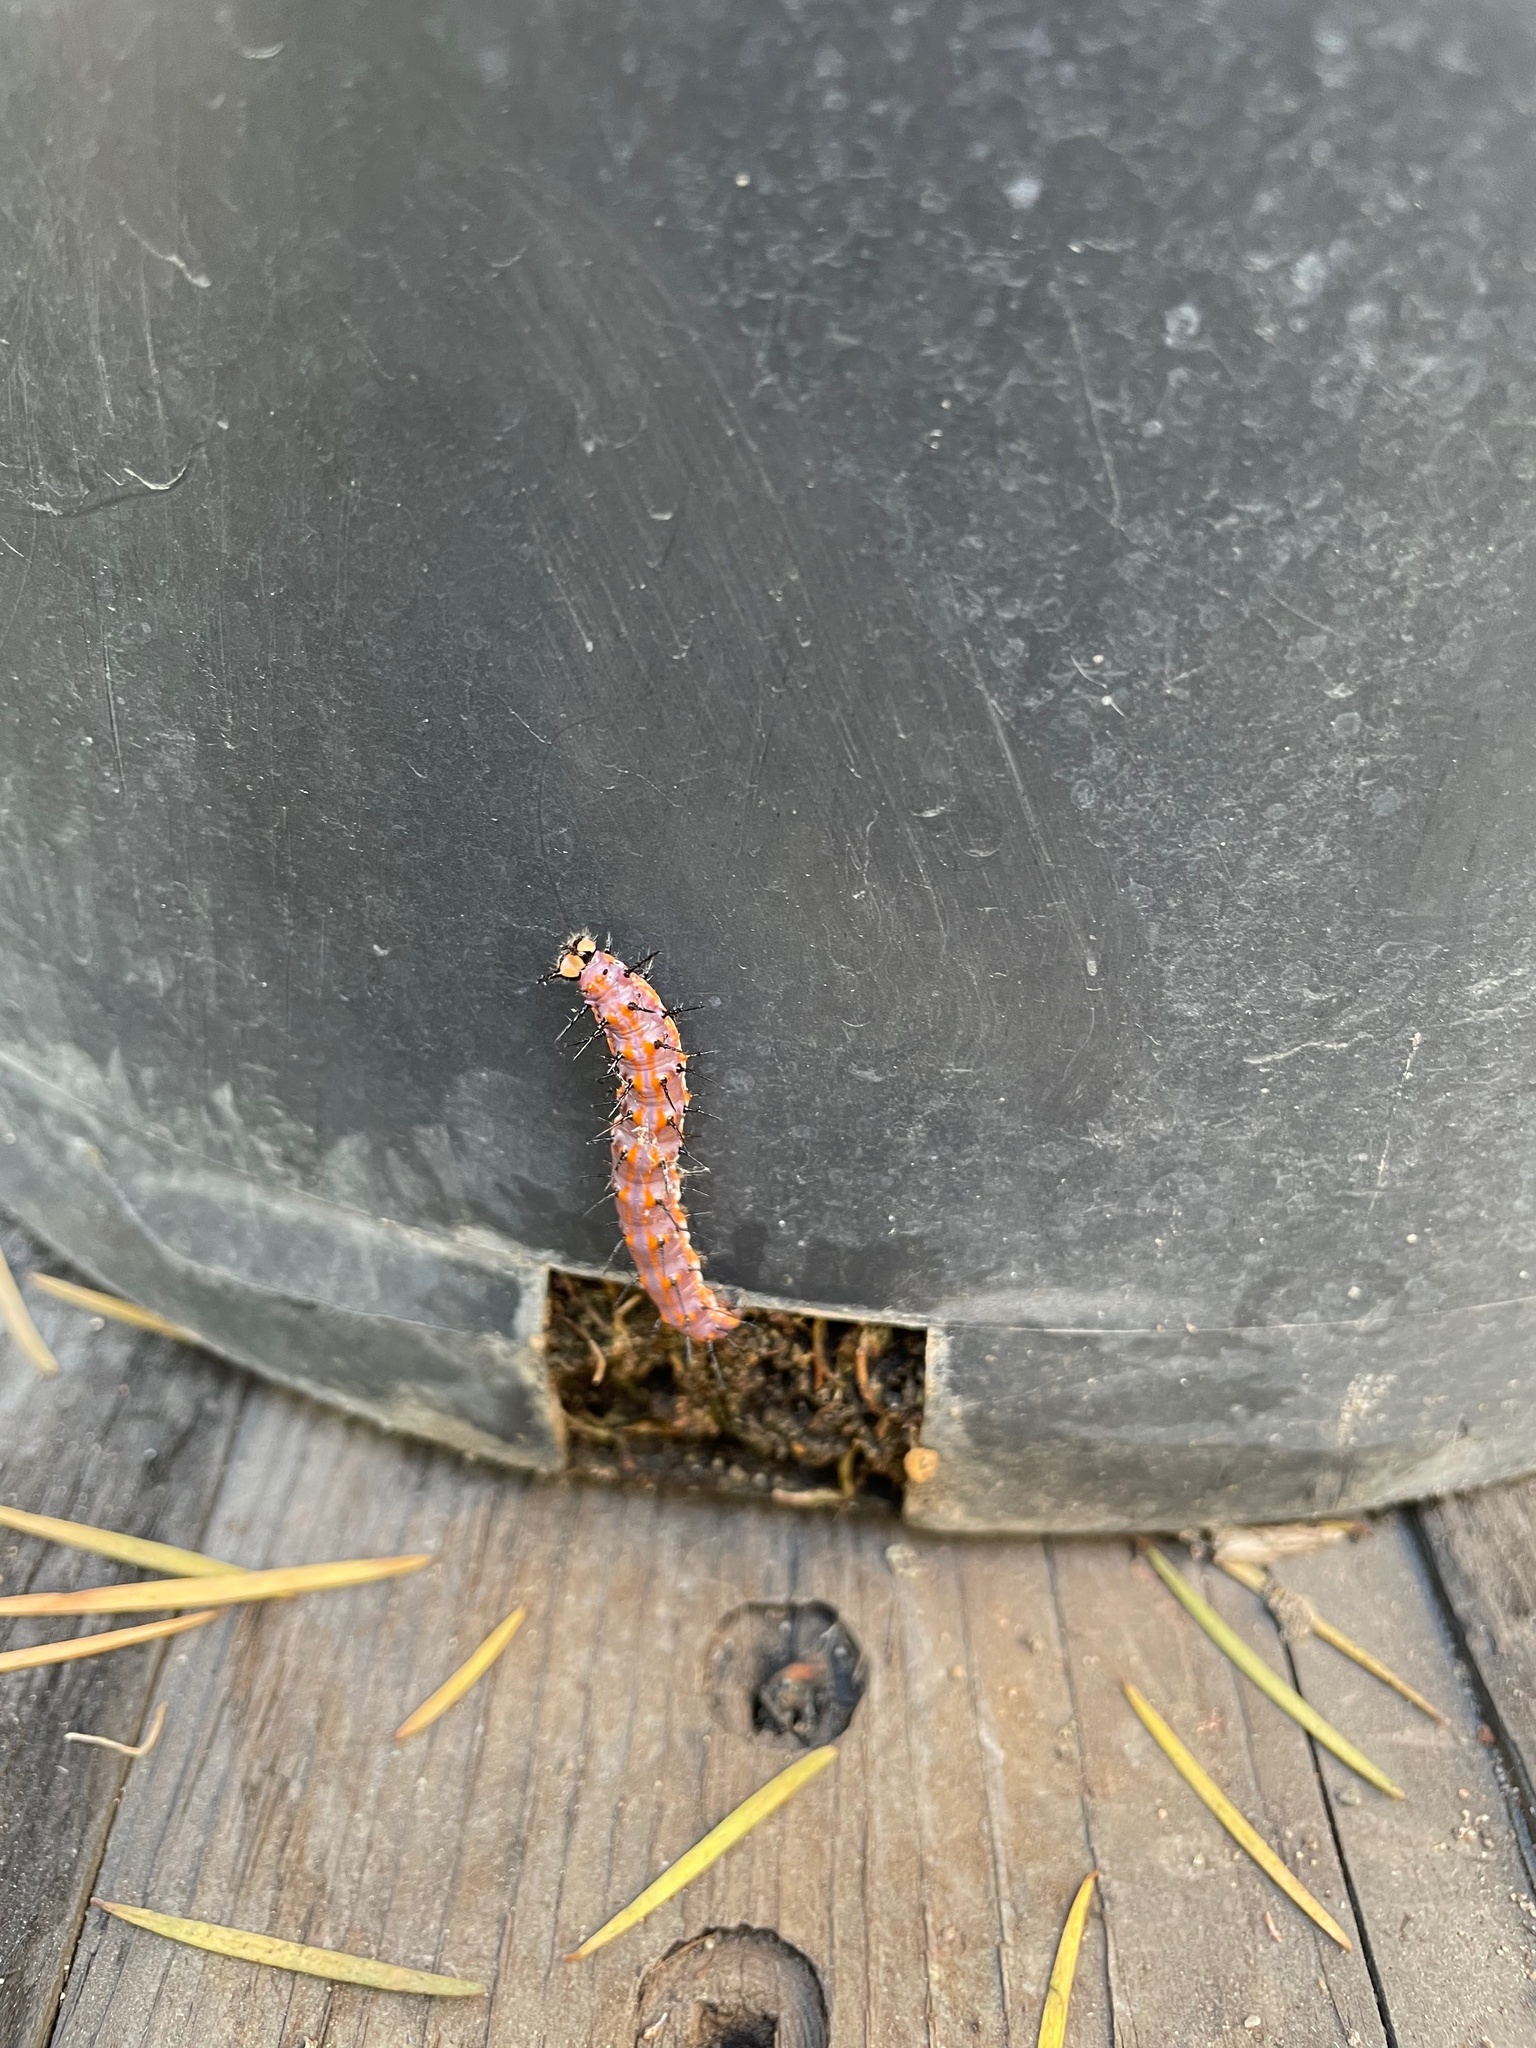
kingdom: Animalia
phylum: Arthropoda
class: Insecta
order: Lepidoptera
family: Nymphalidae
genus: Dione
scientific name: Dione vanillae
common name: Gulf fritillary
